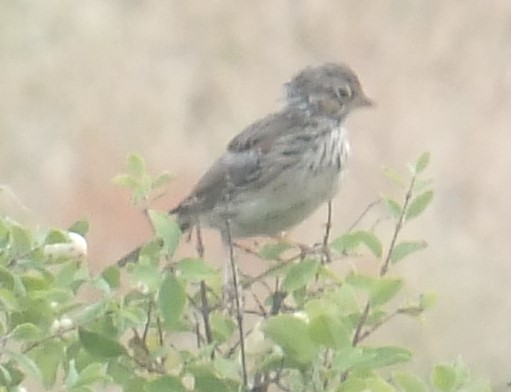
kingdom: Animalia
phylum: Chordata
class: Aves
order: Passeriformes
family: Passerellidae
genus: Pooecetes
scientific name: Pooecetes gramineus
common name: Vesper sparrow
